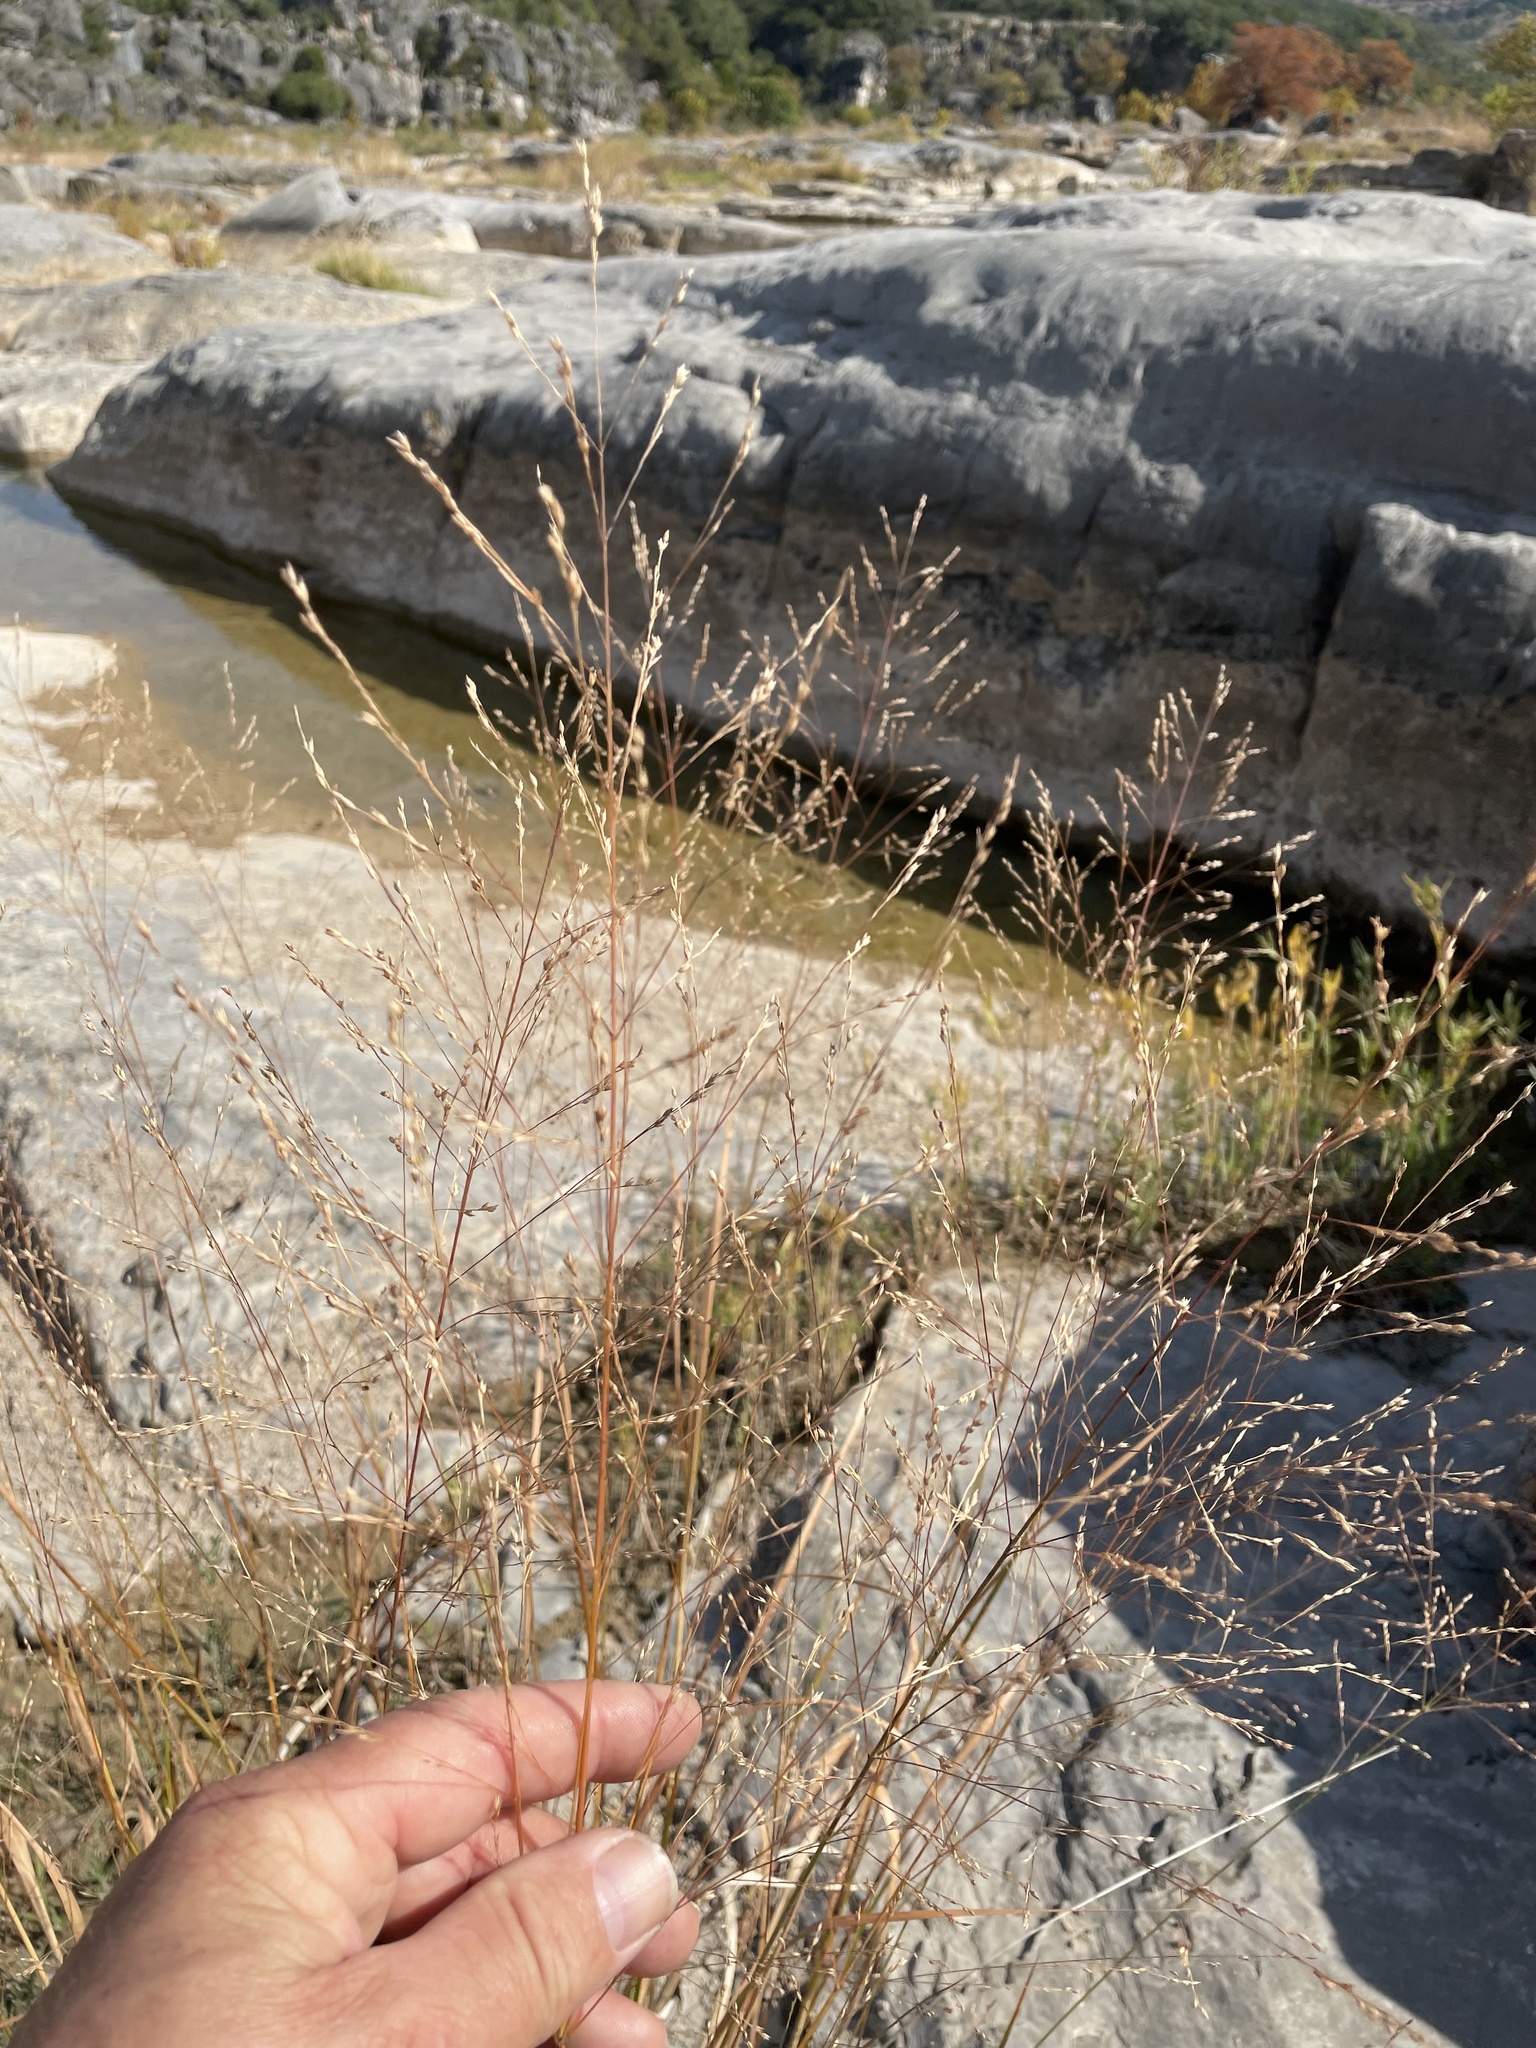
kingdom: Plantae
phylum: Tracheophyta
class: Liliopsida
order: Poales
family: Poaceae
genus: Panicum
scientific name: Panicum virgatum
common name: Switchgrass
